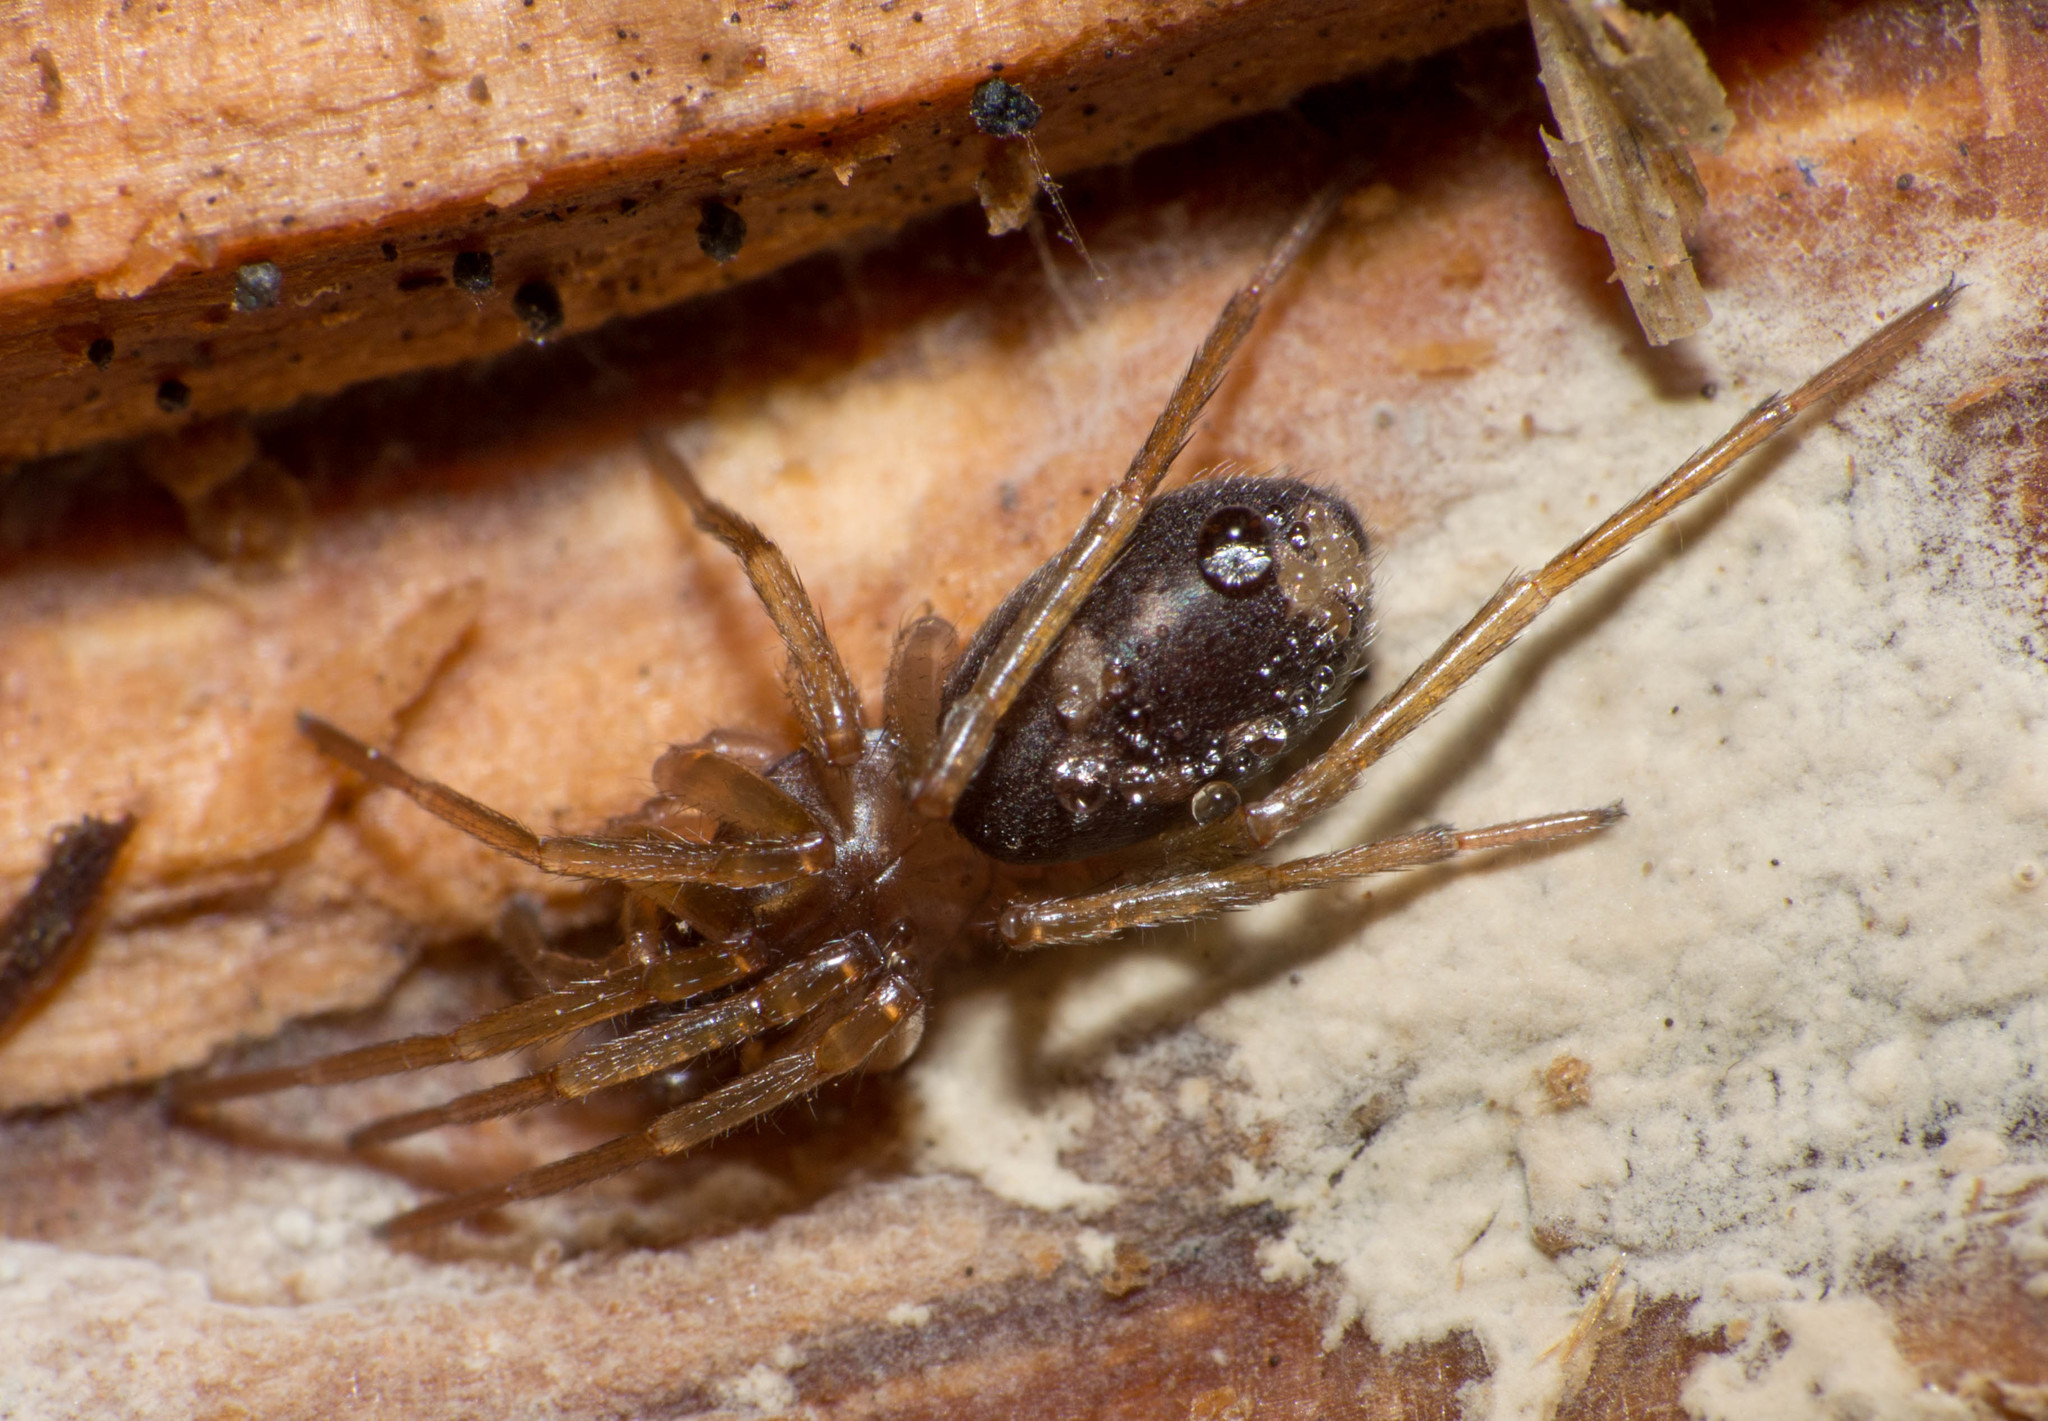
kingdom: Animalia
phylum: Arthropoda
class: Arachnida
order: Araneae
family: Corinnidae
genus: Falconina
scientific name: Falconina gracilis
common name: Antmimic spider
